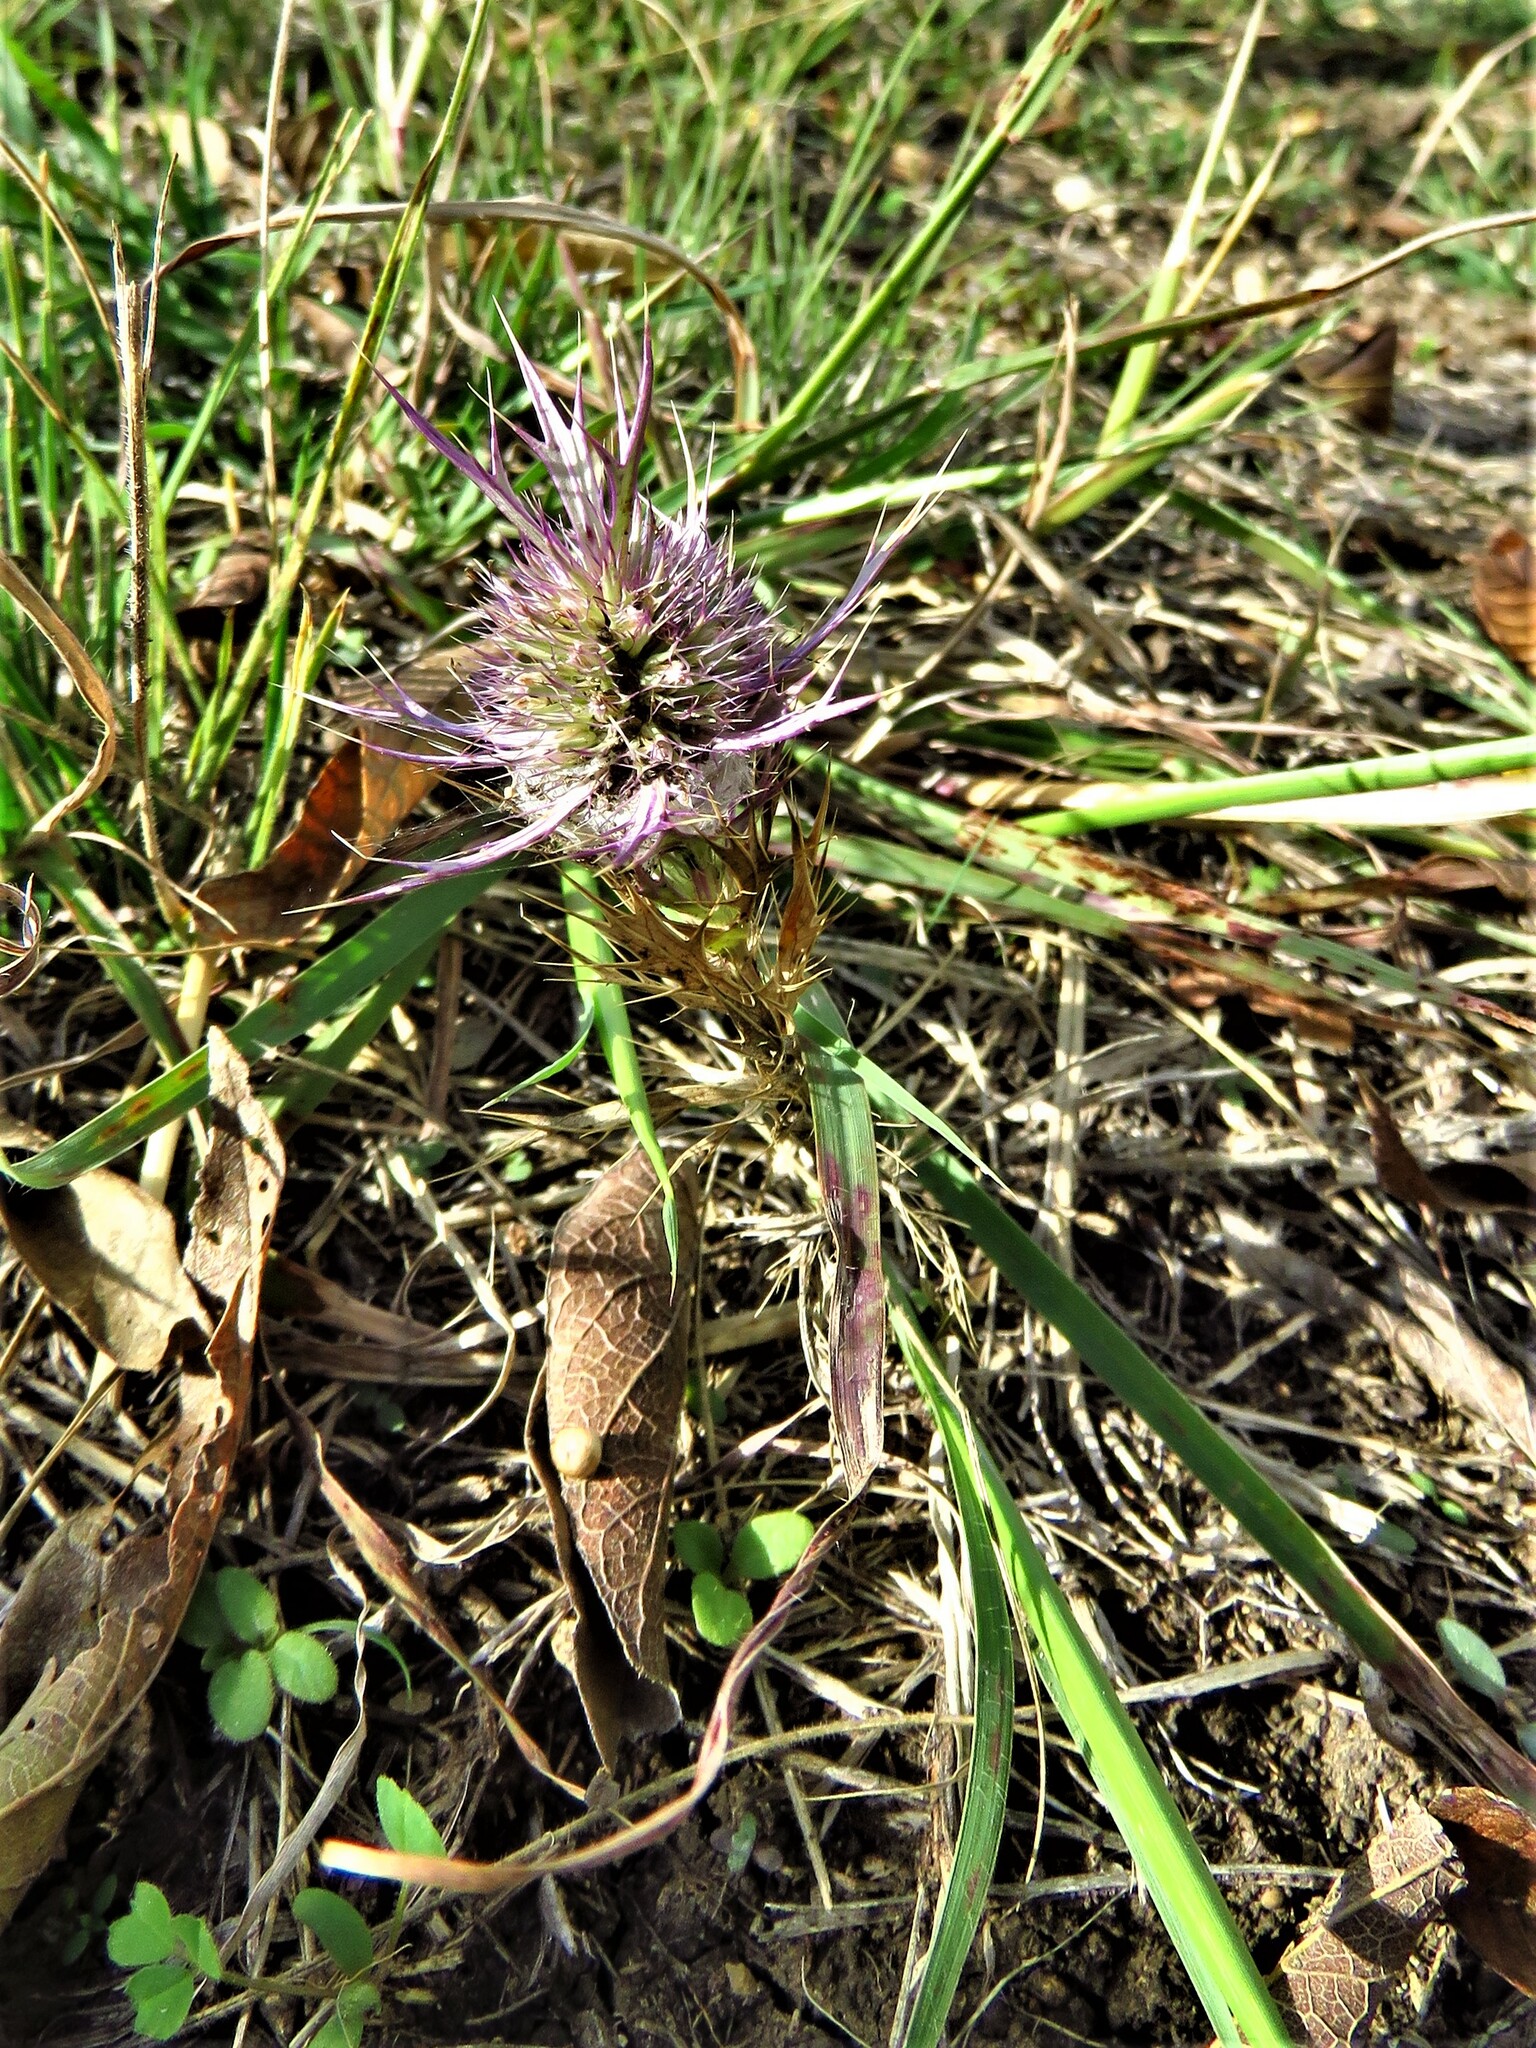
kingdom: Plantae
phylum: Tracheophyta
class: Magnoliopsida
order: Apiales
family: Apiaceae
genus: Eryngium
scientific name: Eryngium leavenworthii
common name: Leavenworth's eryngo
